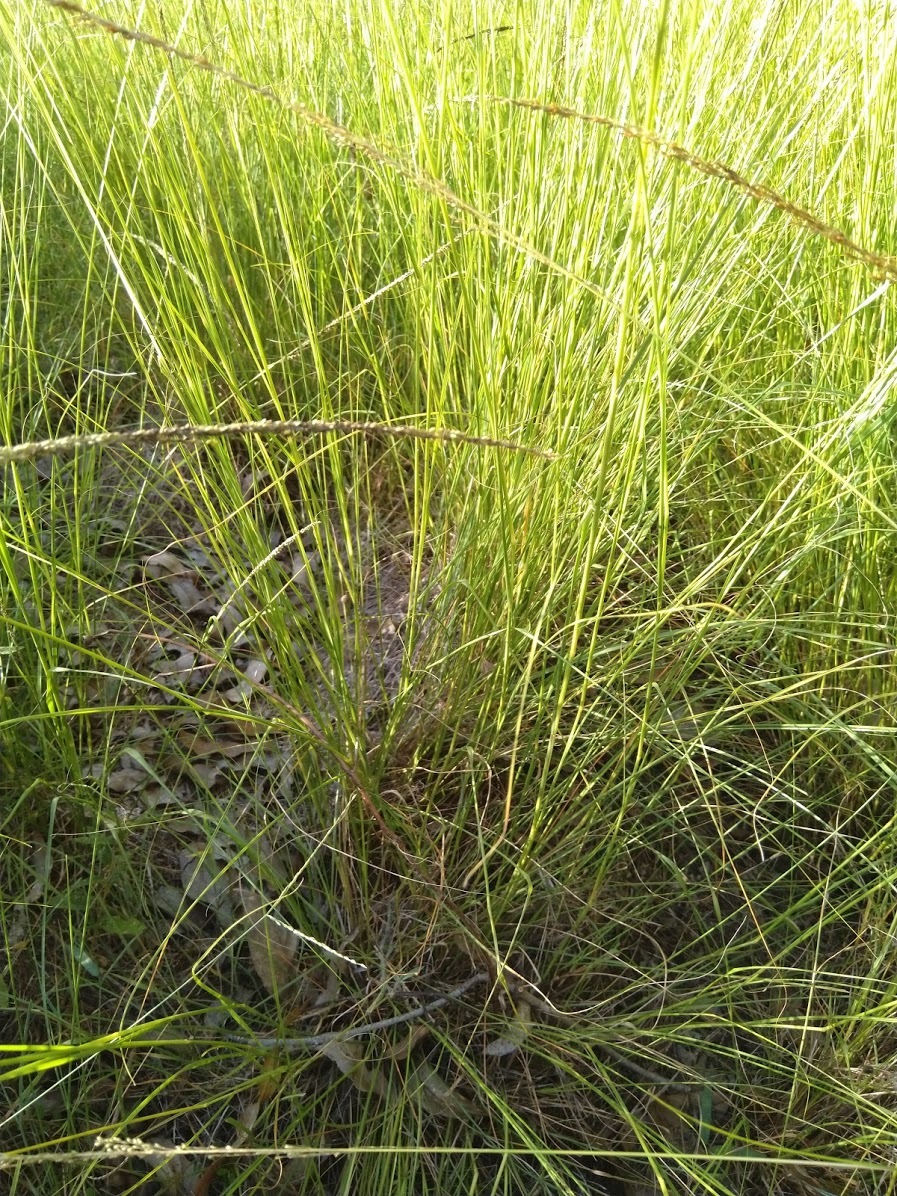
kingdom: Plantae
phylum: Tracheophyta
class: Liliopsida
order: Poales
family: Poaceae
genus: Sporobolus
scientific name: Sporobolus fertilis
